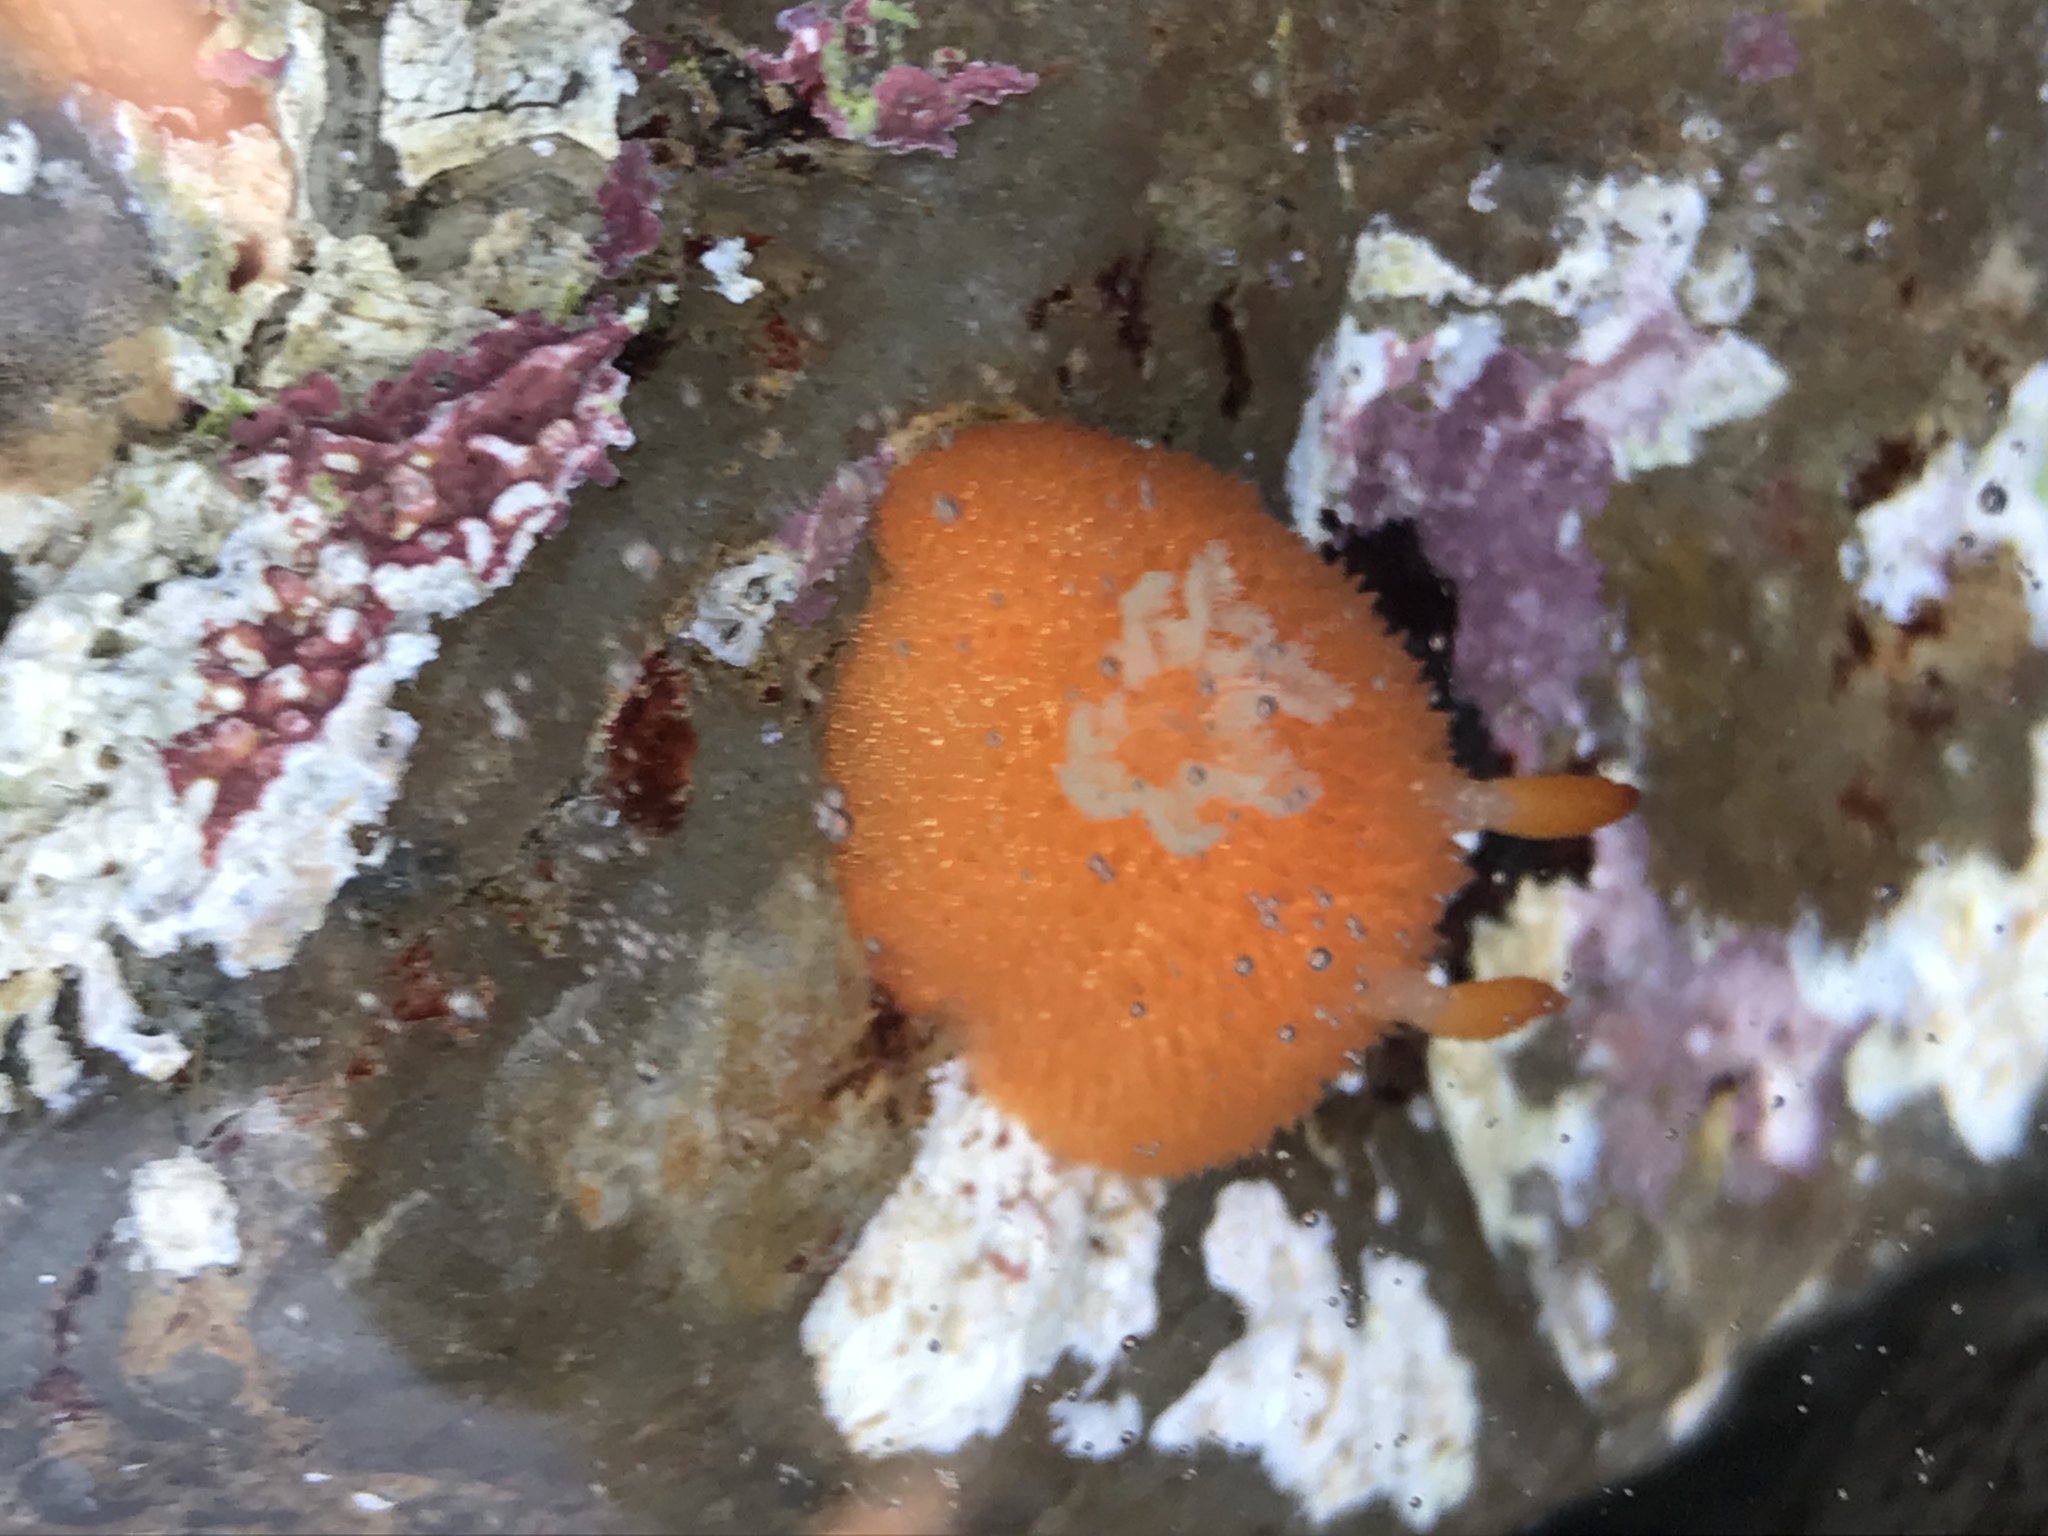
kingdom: Animalia
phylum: Mollusca
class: Gastropoda
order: Nudibranchia
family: Onchidorididae
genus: Acanthodoris
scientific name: Acanthodoris lutea
